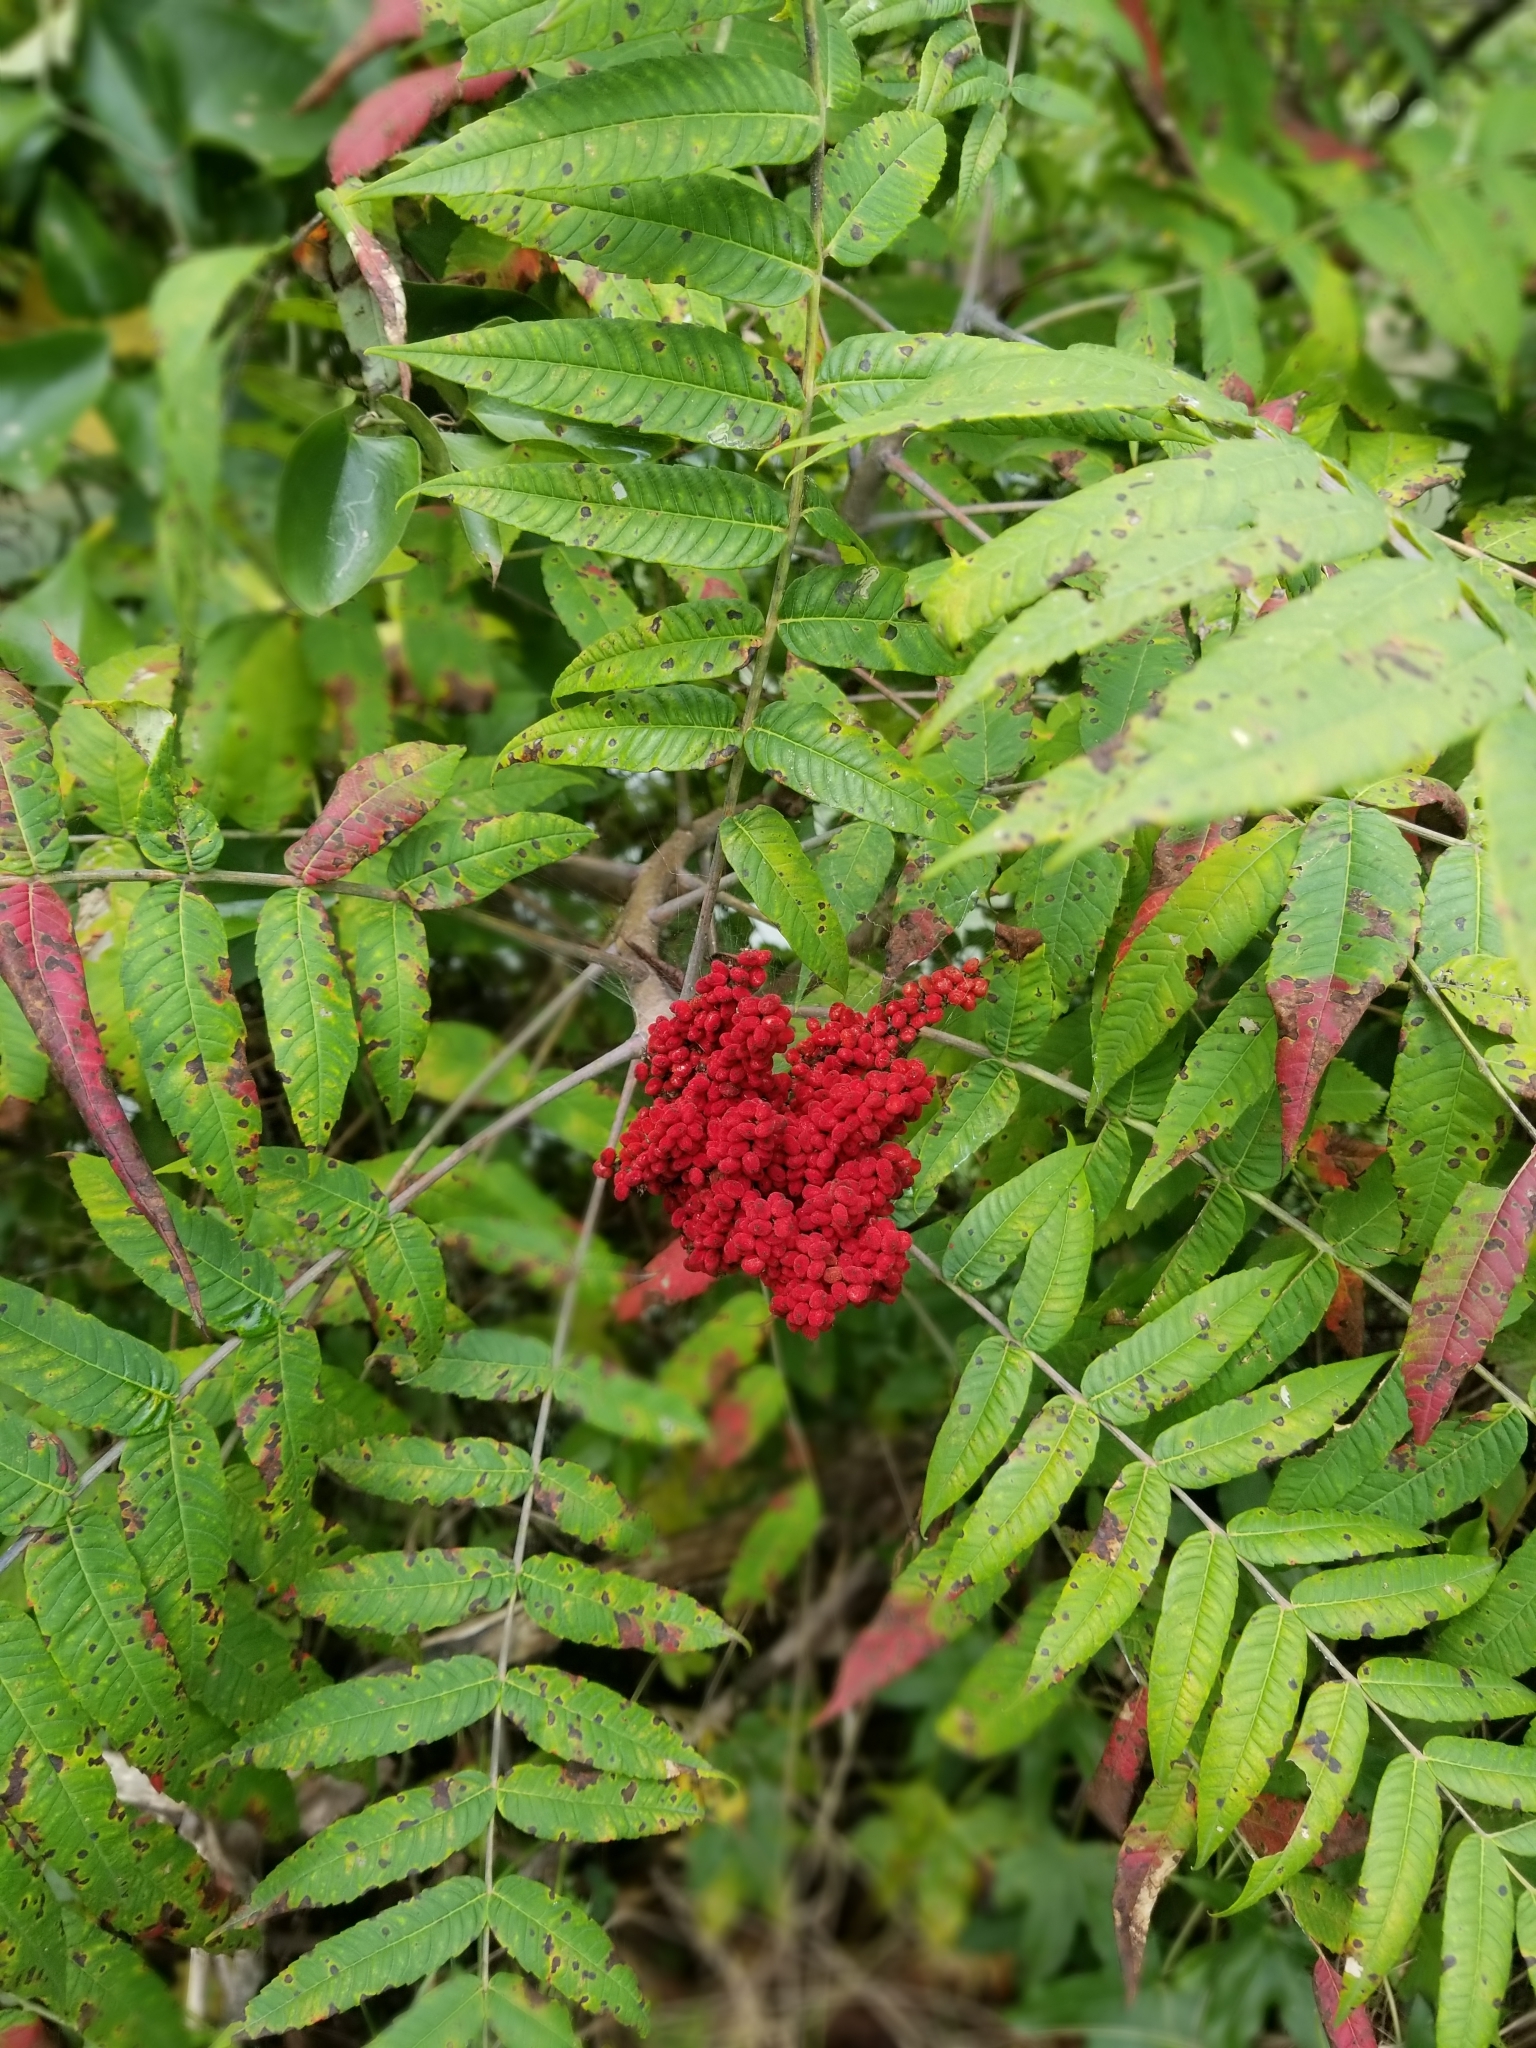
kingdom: Plantae
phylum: Tracheophyta
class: Magnoliopsida
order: Sapindales
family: Anacardiaceae
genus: Rhus
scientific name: Rhus glabra
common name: Scarlet sumac
